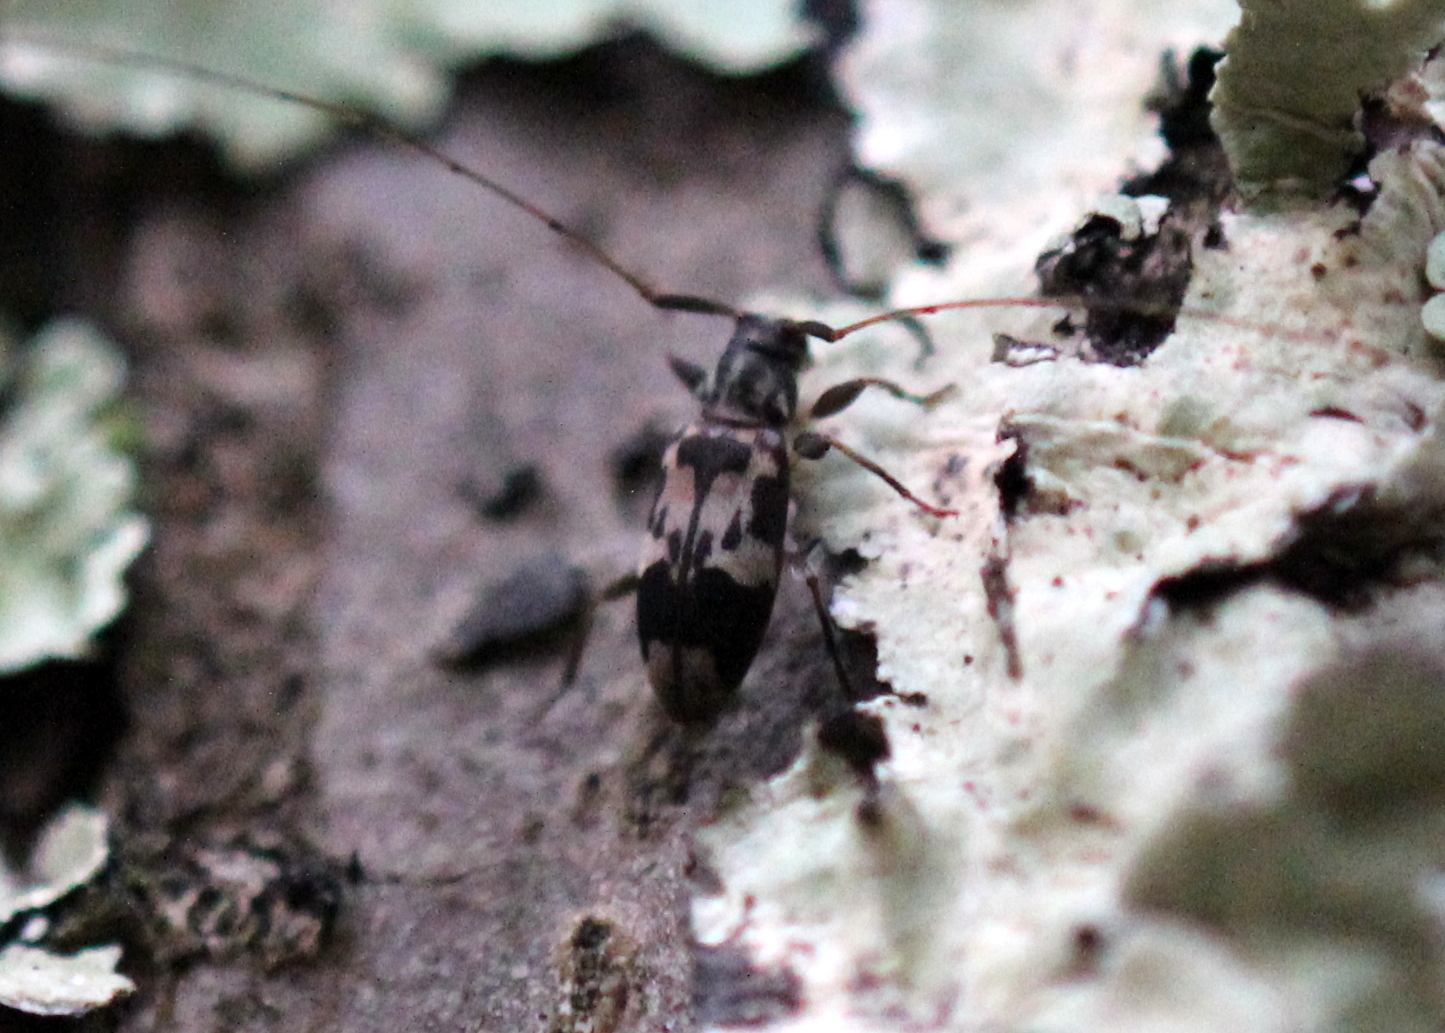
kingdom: Animalia
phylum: Arthropoda
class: Insecta
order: Coleoptera
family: Cerambycidae
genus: Urgleptes
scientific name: Urgleptes querci
